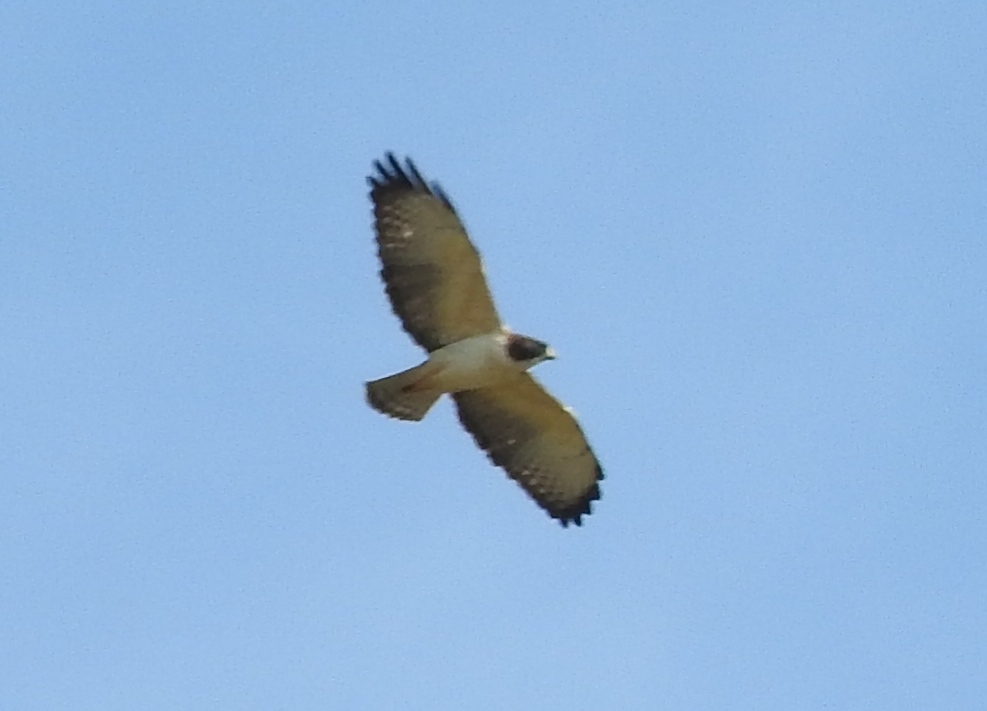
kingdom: Animalia
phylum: Chordata
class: Aves
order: Accipitriformes
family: Accipitridae
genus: Buteo
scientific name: Buteo brachyurus
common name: Short-tailed hawk
